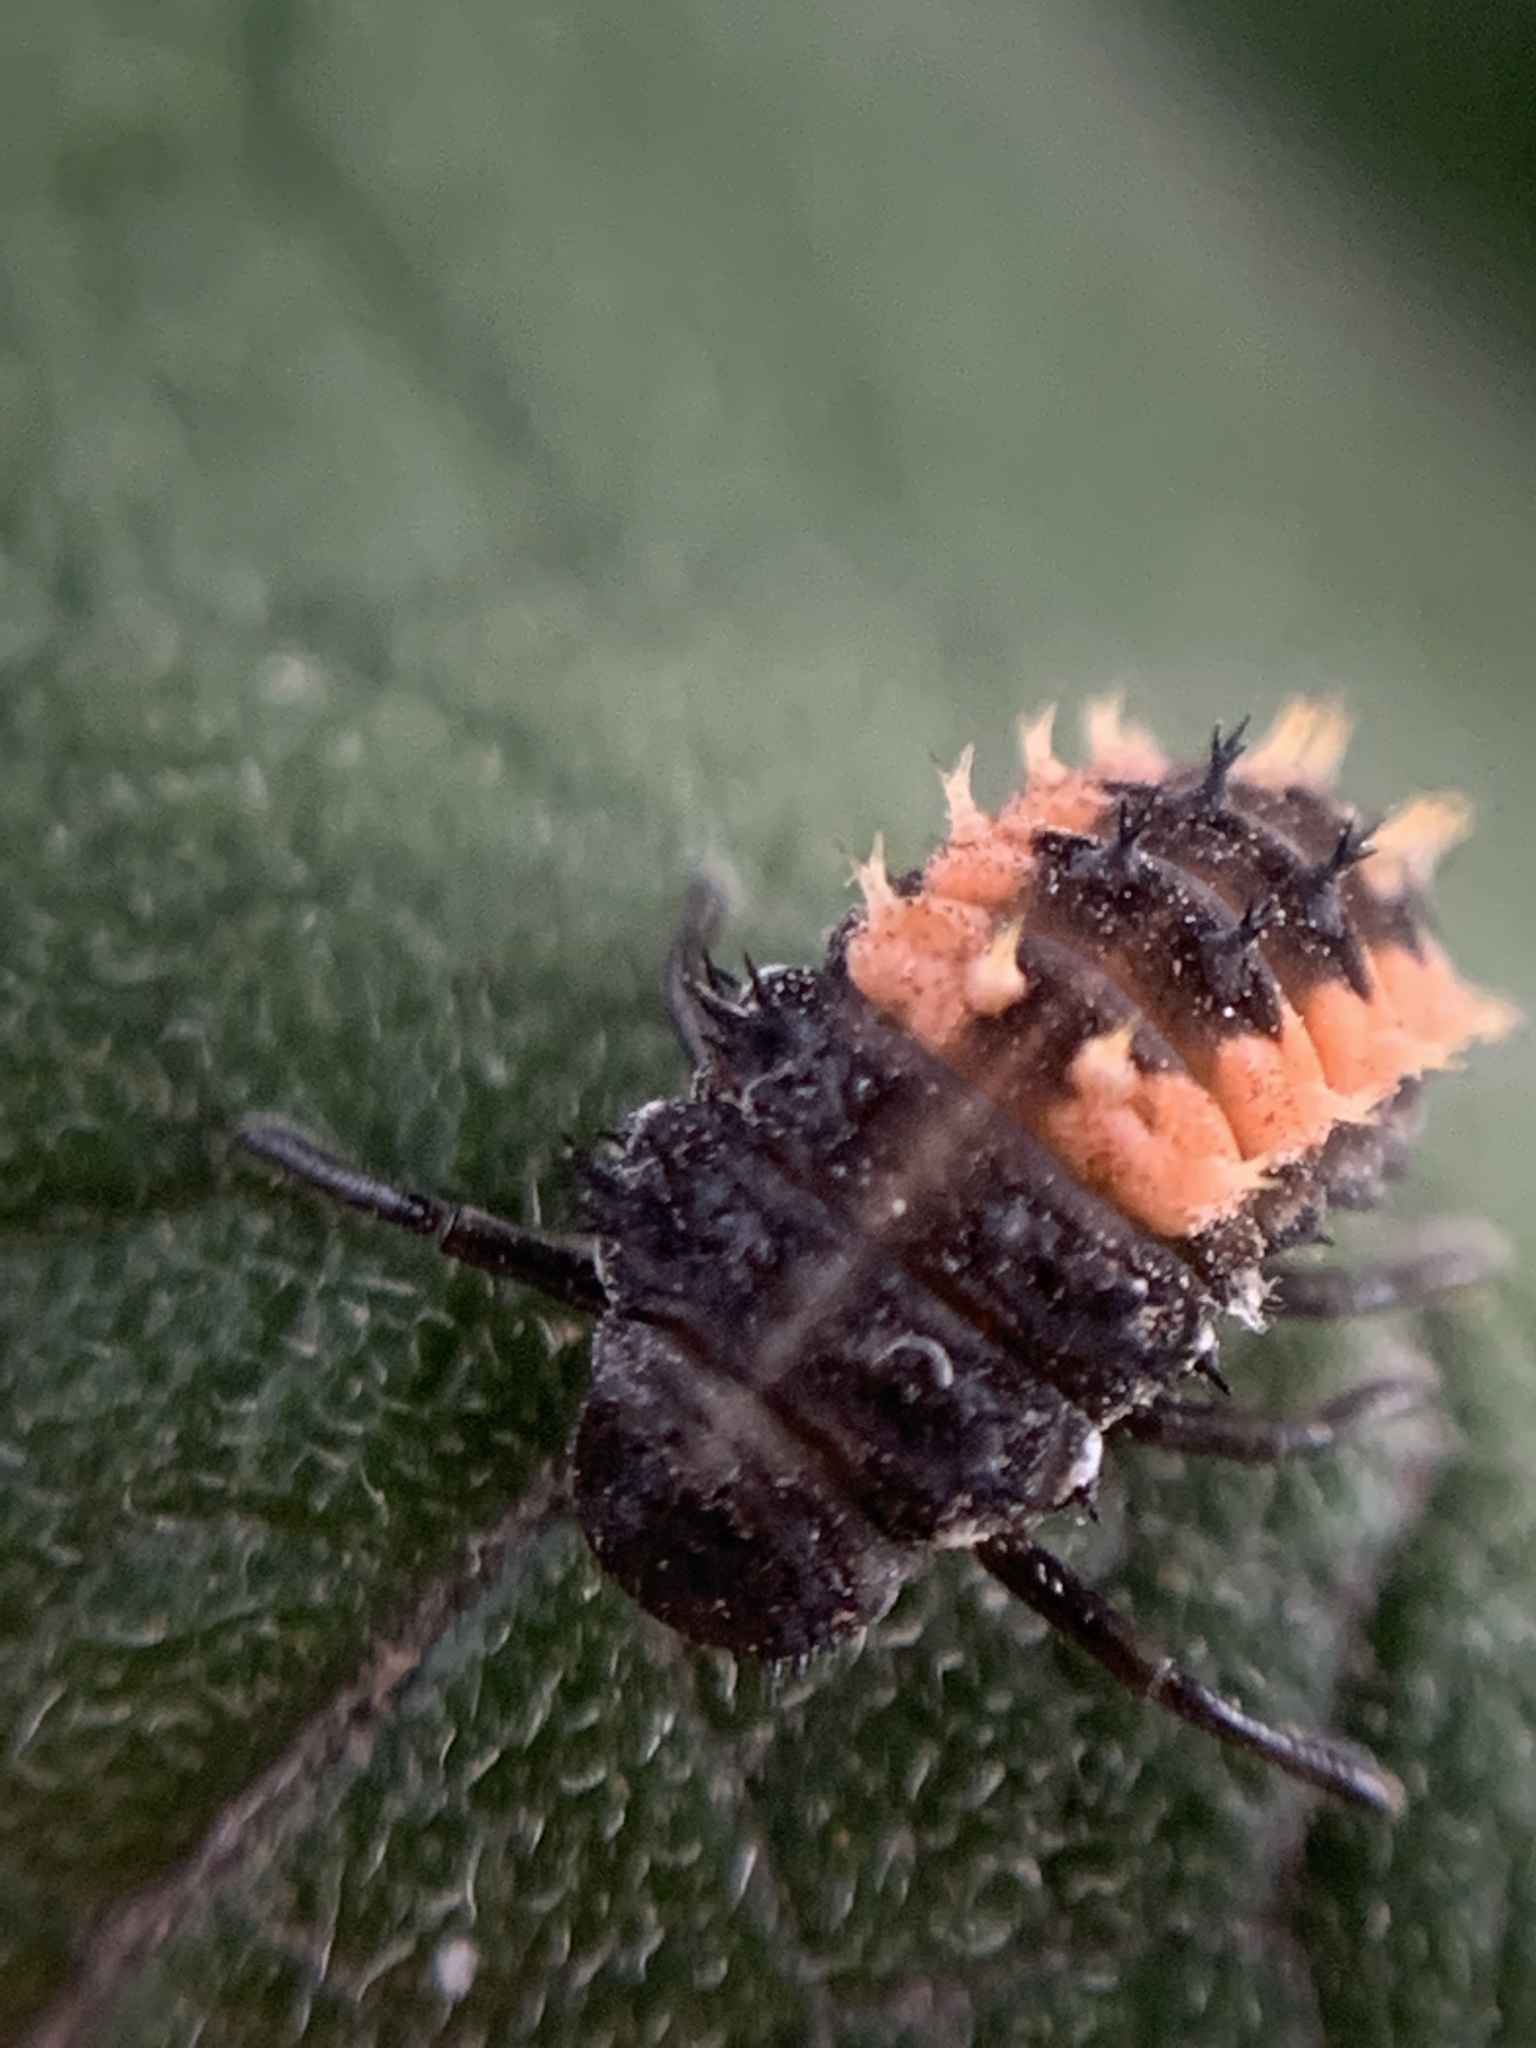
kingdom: Animalia
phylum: Arthropoda
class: Insecta
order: Coleoptera
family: Coccinellidae
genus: Harmonia
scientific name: Harmonia axyridis
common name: Harlequin ladybird
